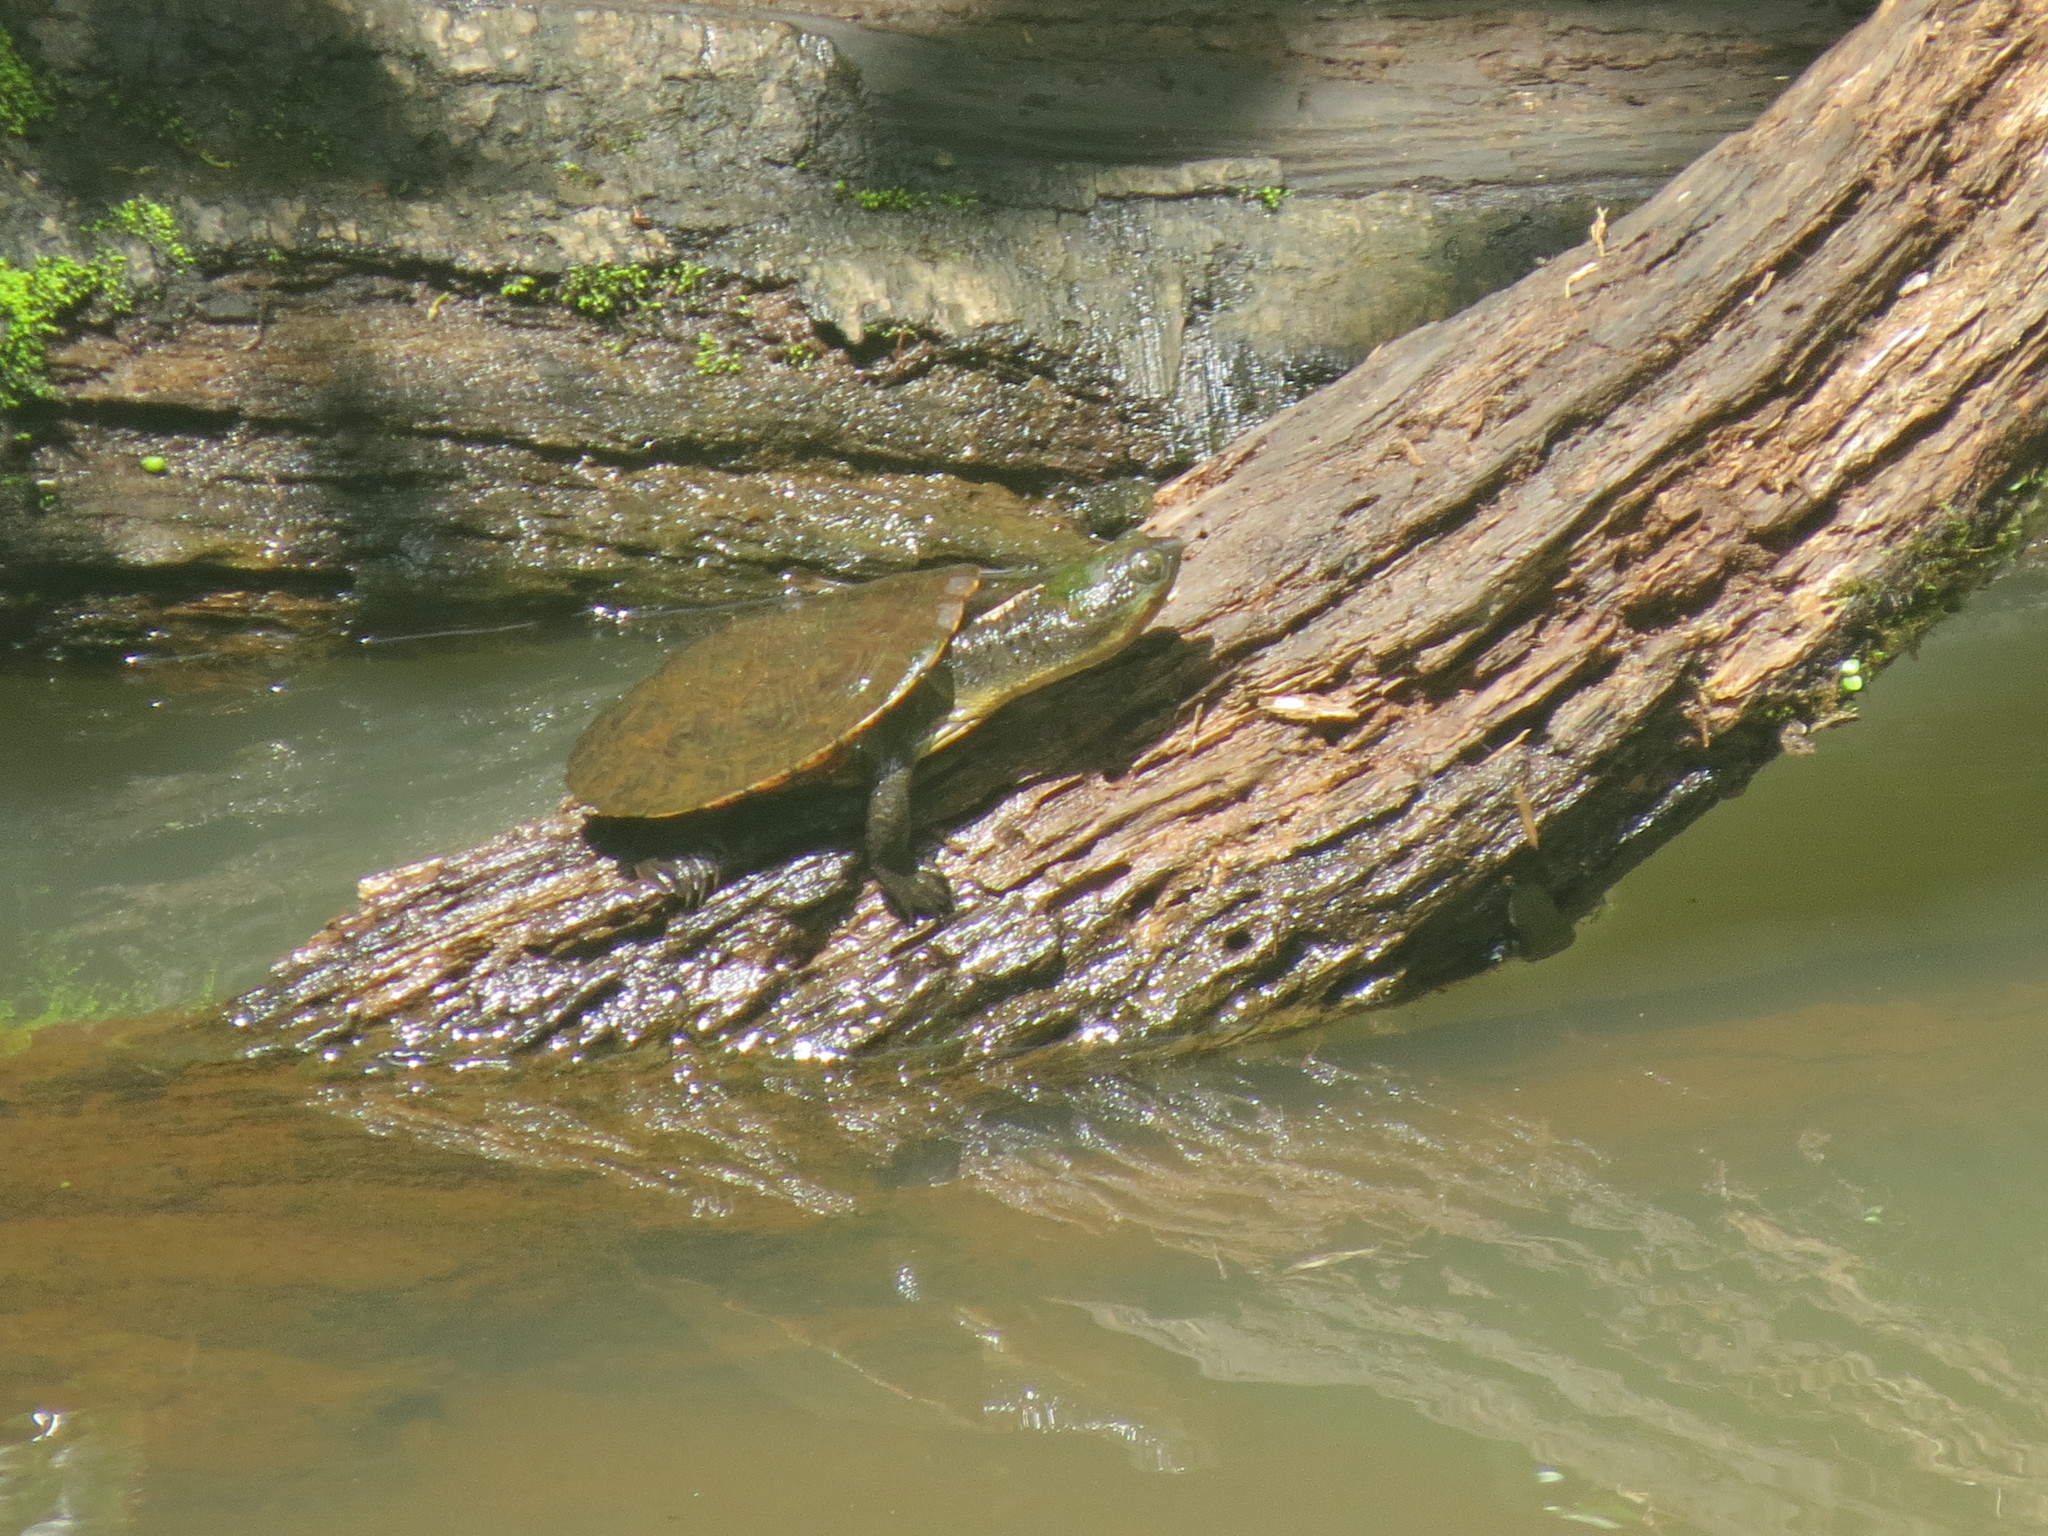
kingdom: Animalia
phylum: Chordata
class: Testudines
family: Chelidae
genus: Myuchelys
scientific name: Myuchelys latisternum
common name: Serrated snapping turtle
